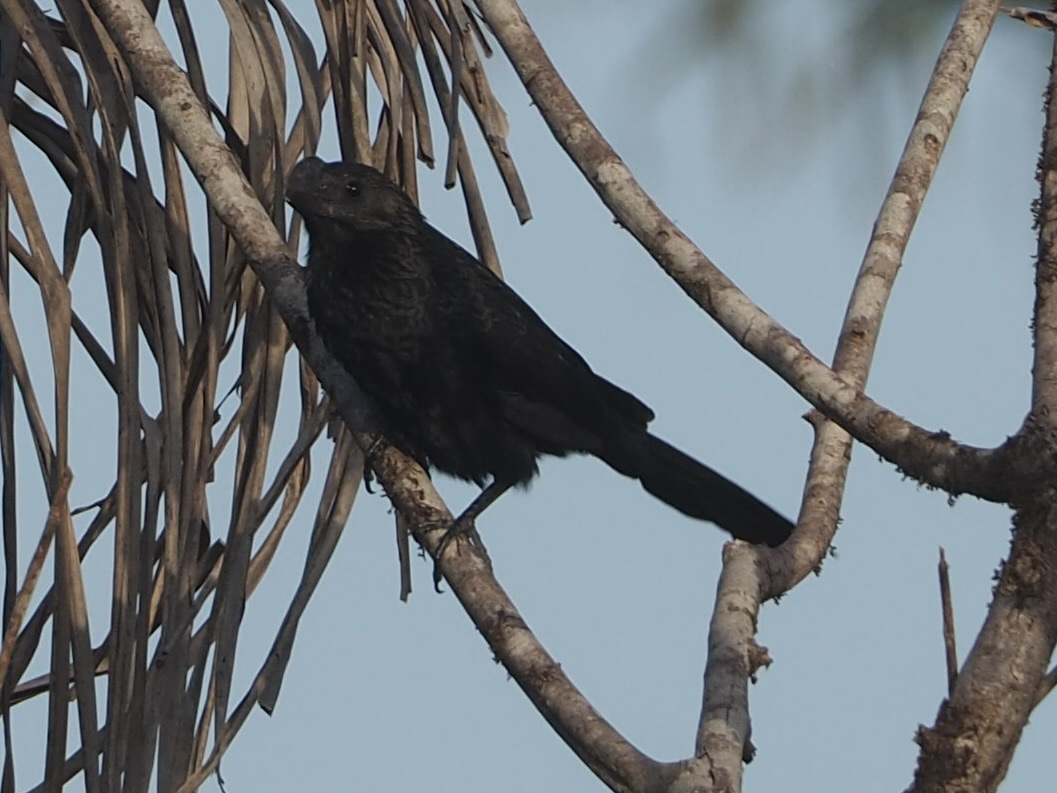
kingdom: Animalia
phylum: Chordata
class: Aves
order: Cuculiformes
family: Cuculidae
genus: Crotophaga
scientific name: Crotophaga ani
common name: Smooth-billed ani
